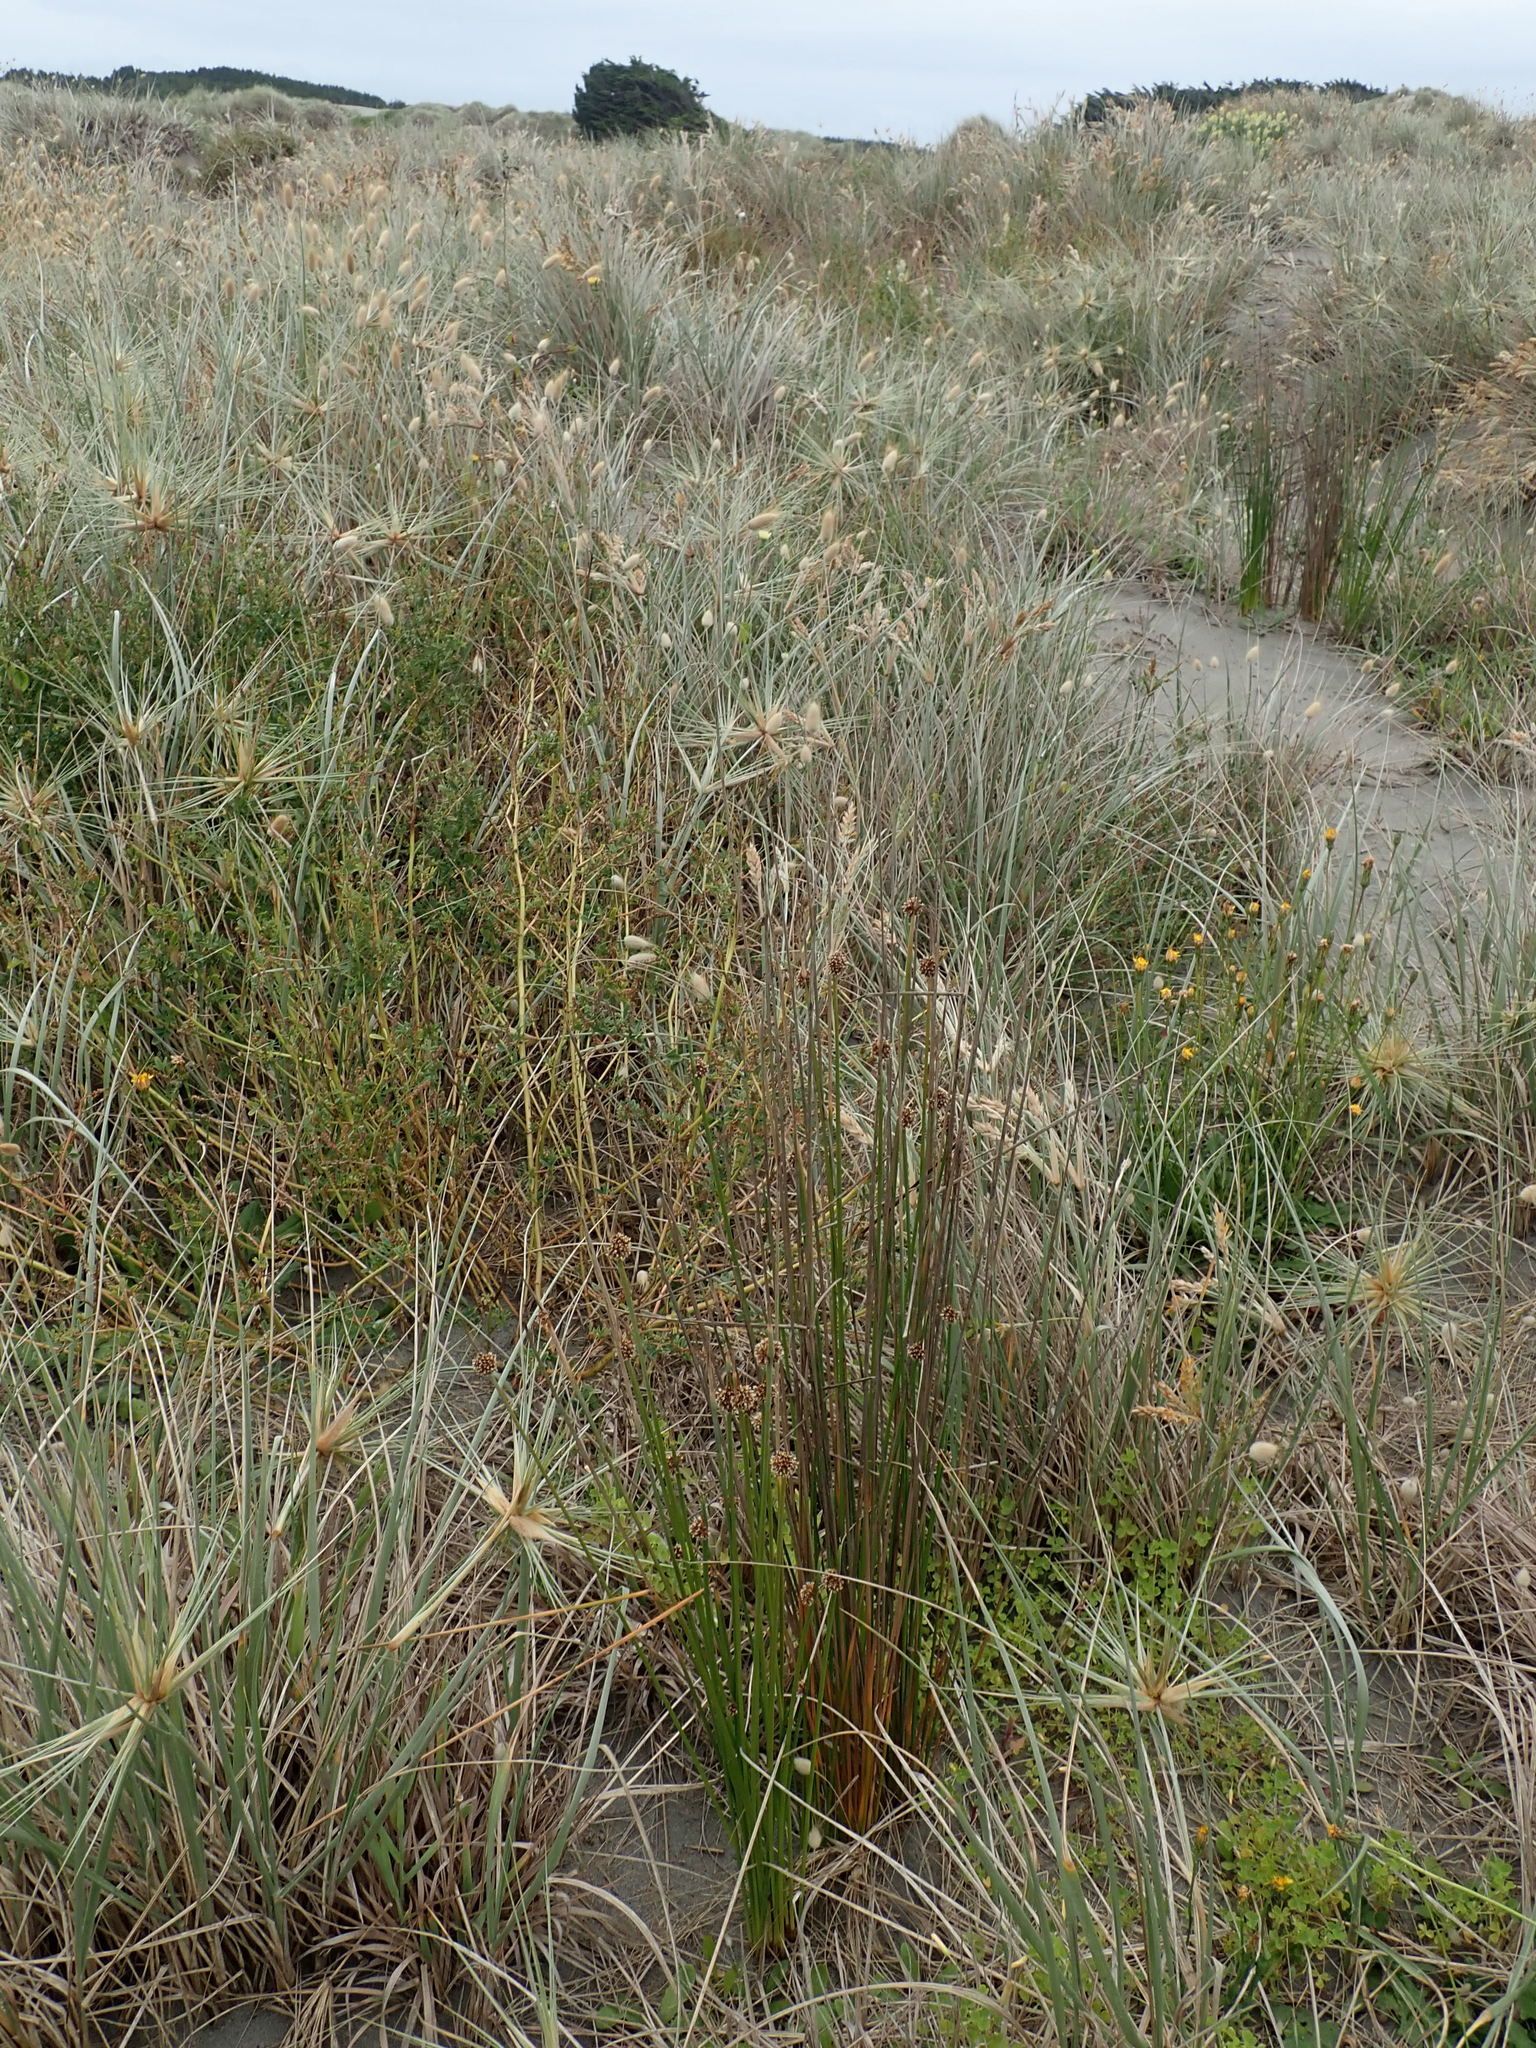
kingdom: Plantae
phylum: Tracheophyta
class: Liliopsida
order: Poales
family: Cyperaceae
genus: Ficinia
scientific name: Ficinia nodosa
